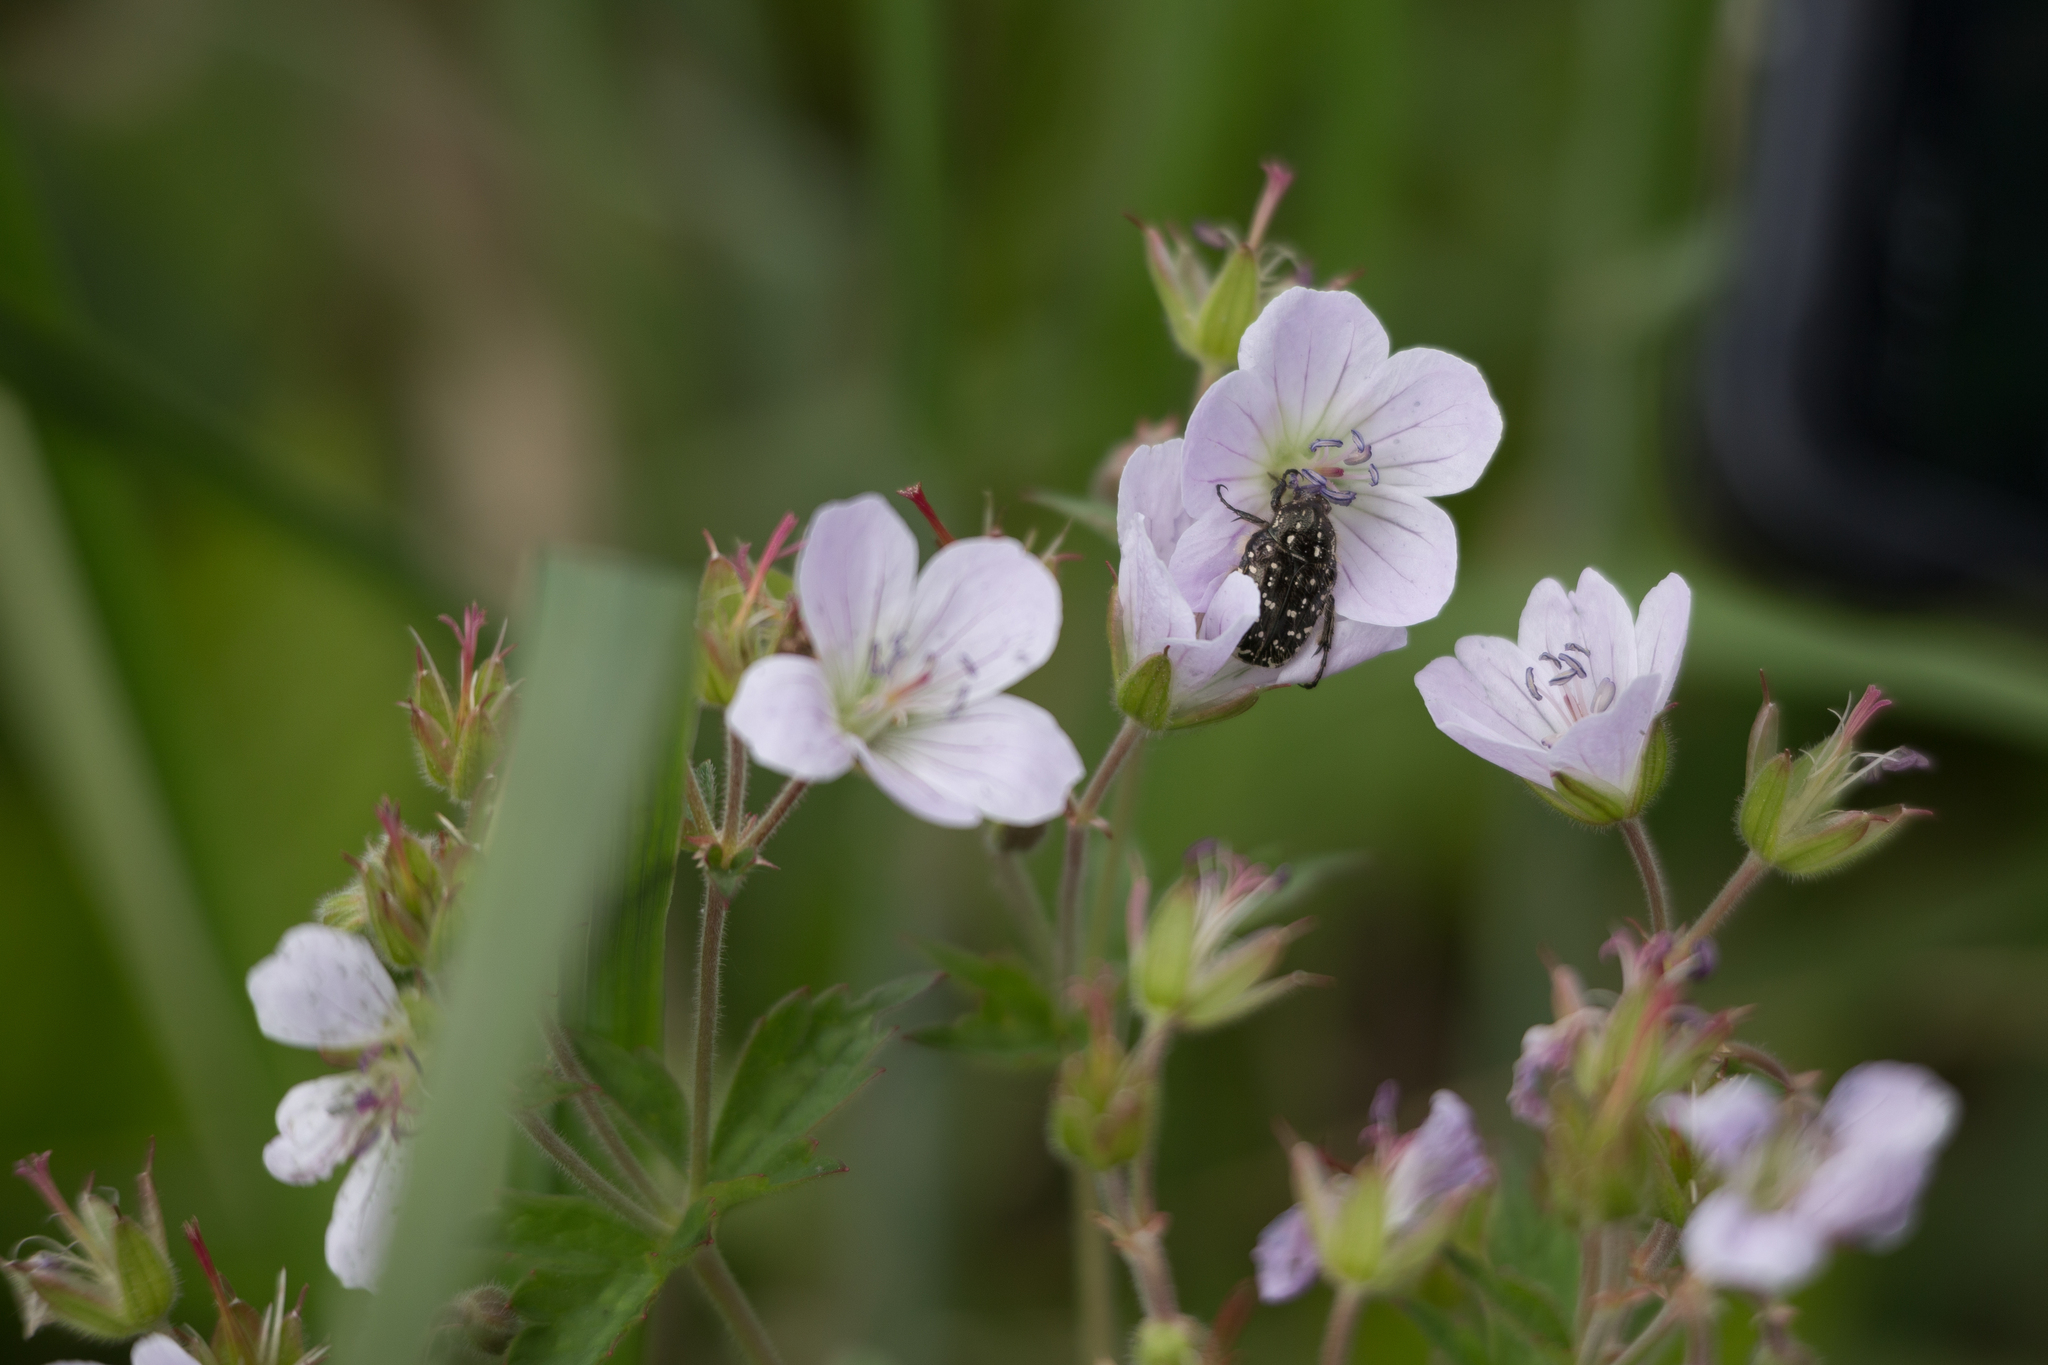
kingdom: Plantae
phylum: Tracheophyta
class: Magnoliopsida
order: Geraniales
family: Geraniaceae
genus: Geranium
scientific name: Geranium sylvaticum
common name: Wood crane's-bill
